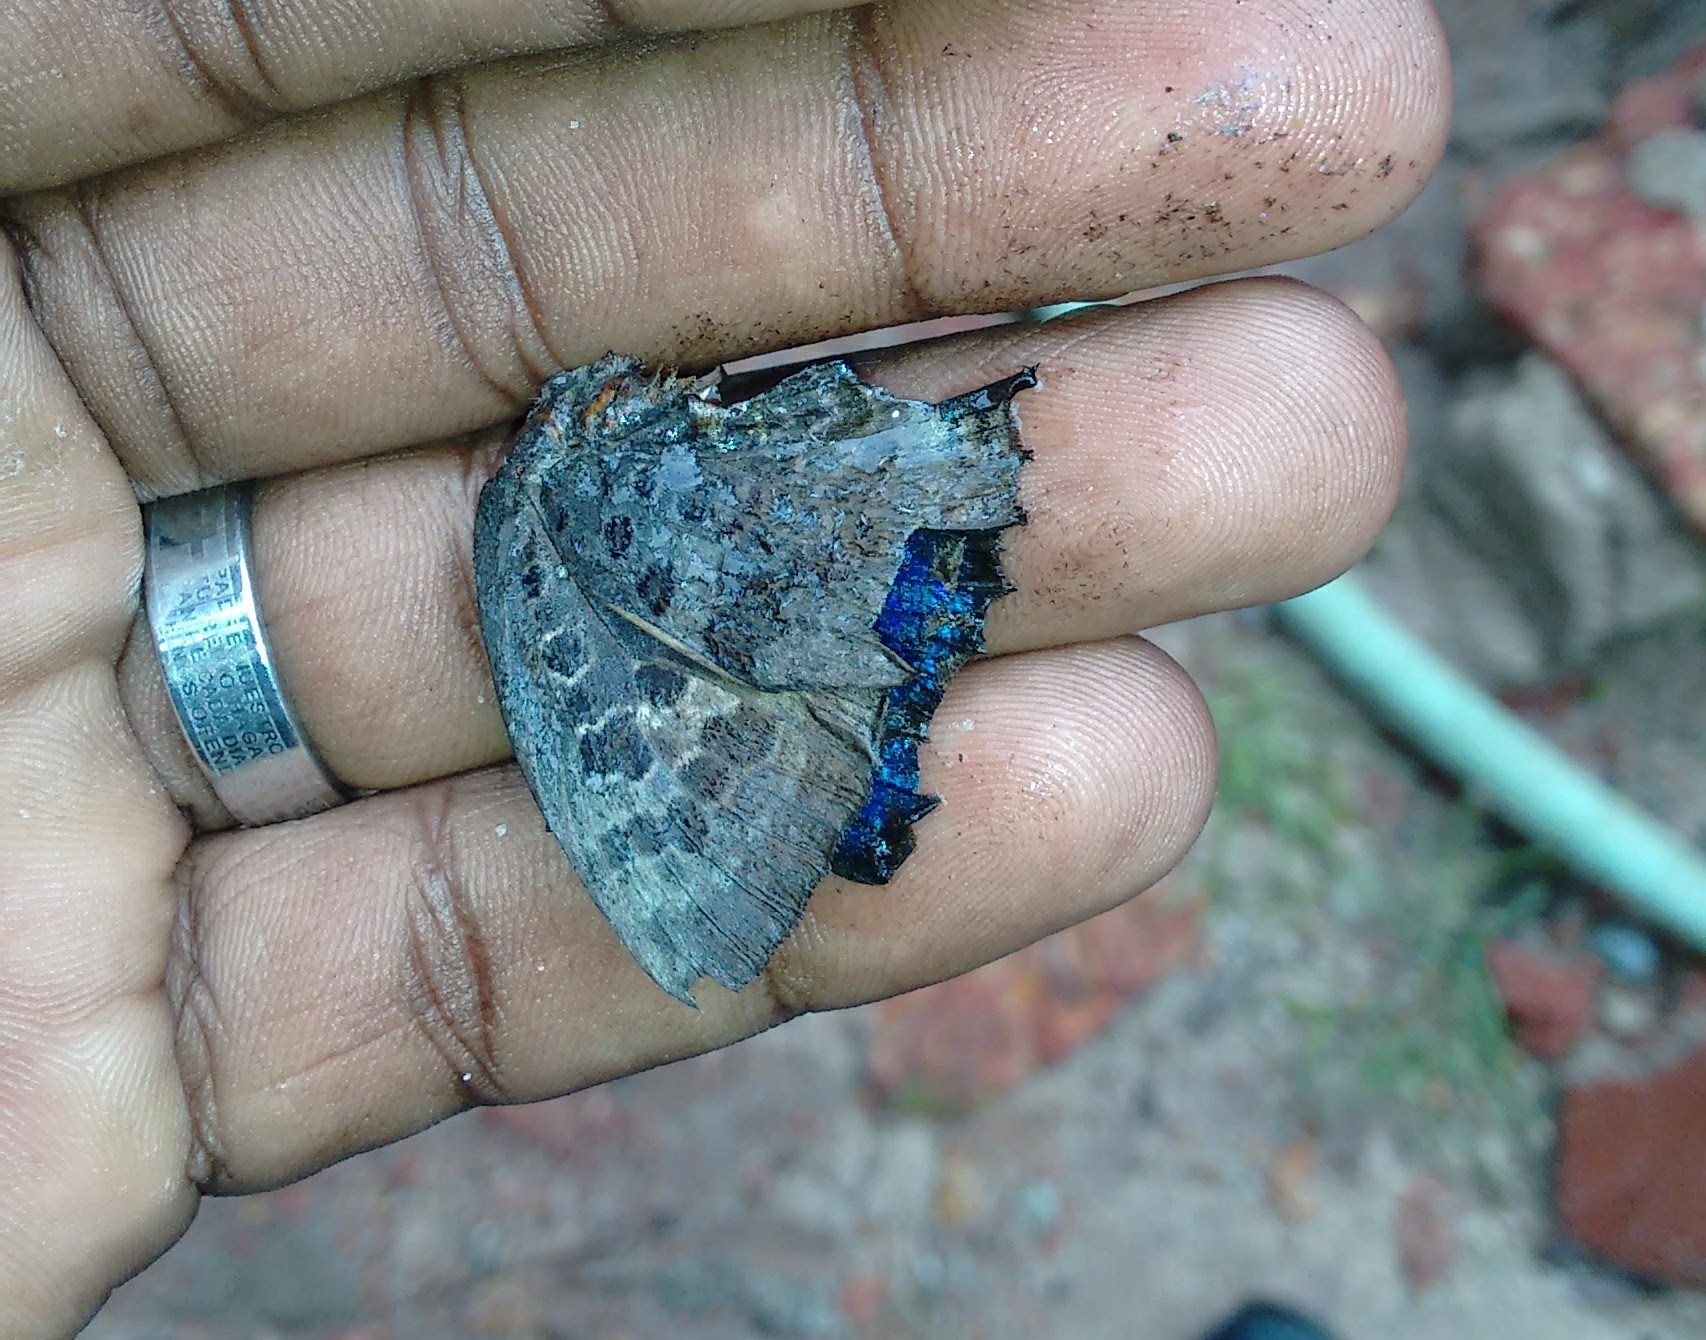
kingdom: Animalia
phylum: Arthropoda
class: Insecta
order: Lepidoptera
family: Lycaenidae
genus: Arhopala
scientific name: Arhopala amantes
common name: Large oakblue
